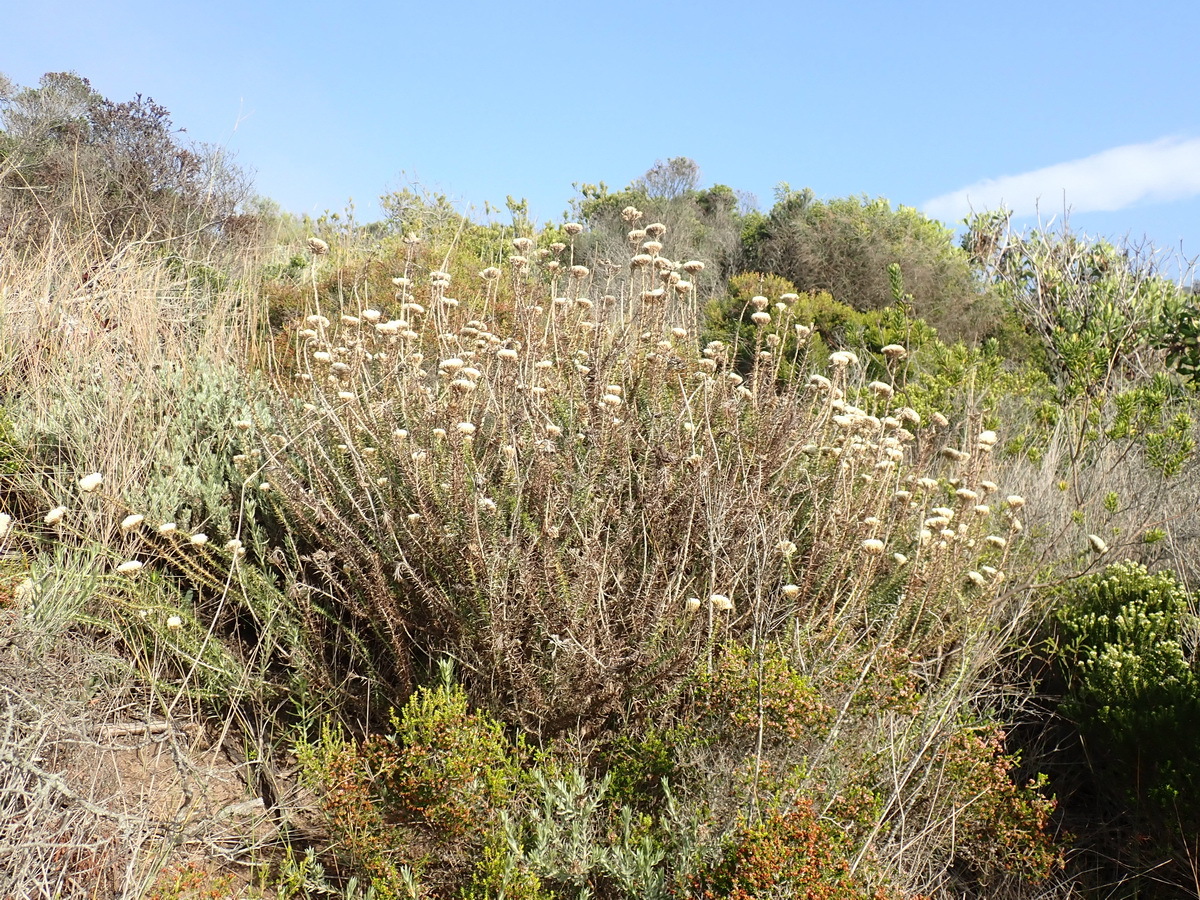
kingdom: Plantae
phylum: Tracheophyta
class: Magnoliopsida
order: Asterales
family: Asteraceae
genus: Metalasia
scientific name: Metalasia acuta
